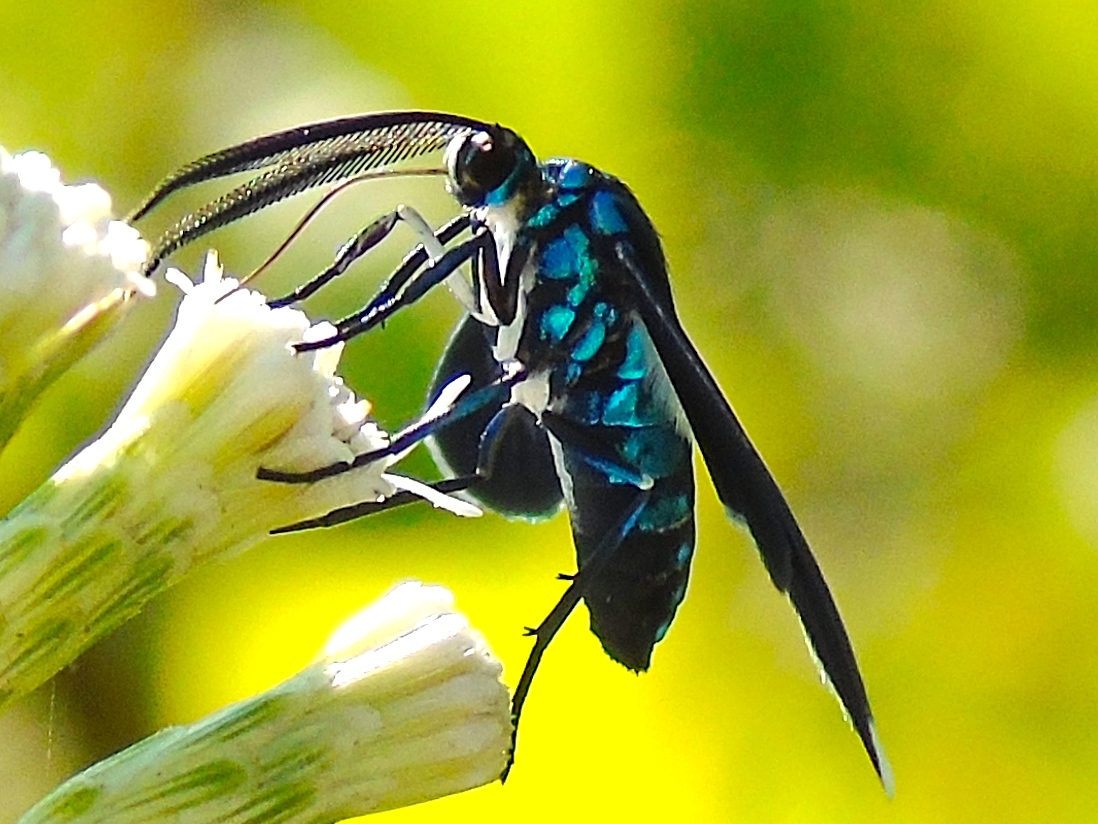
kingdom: Animalia
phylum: Arthropoda
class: Insecta
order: Lepidoptera
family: Erebidae
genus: Uranophora
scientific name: Uranophora leucotela
